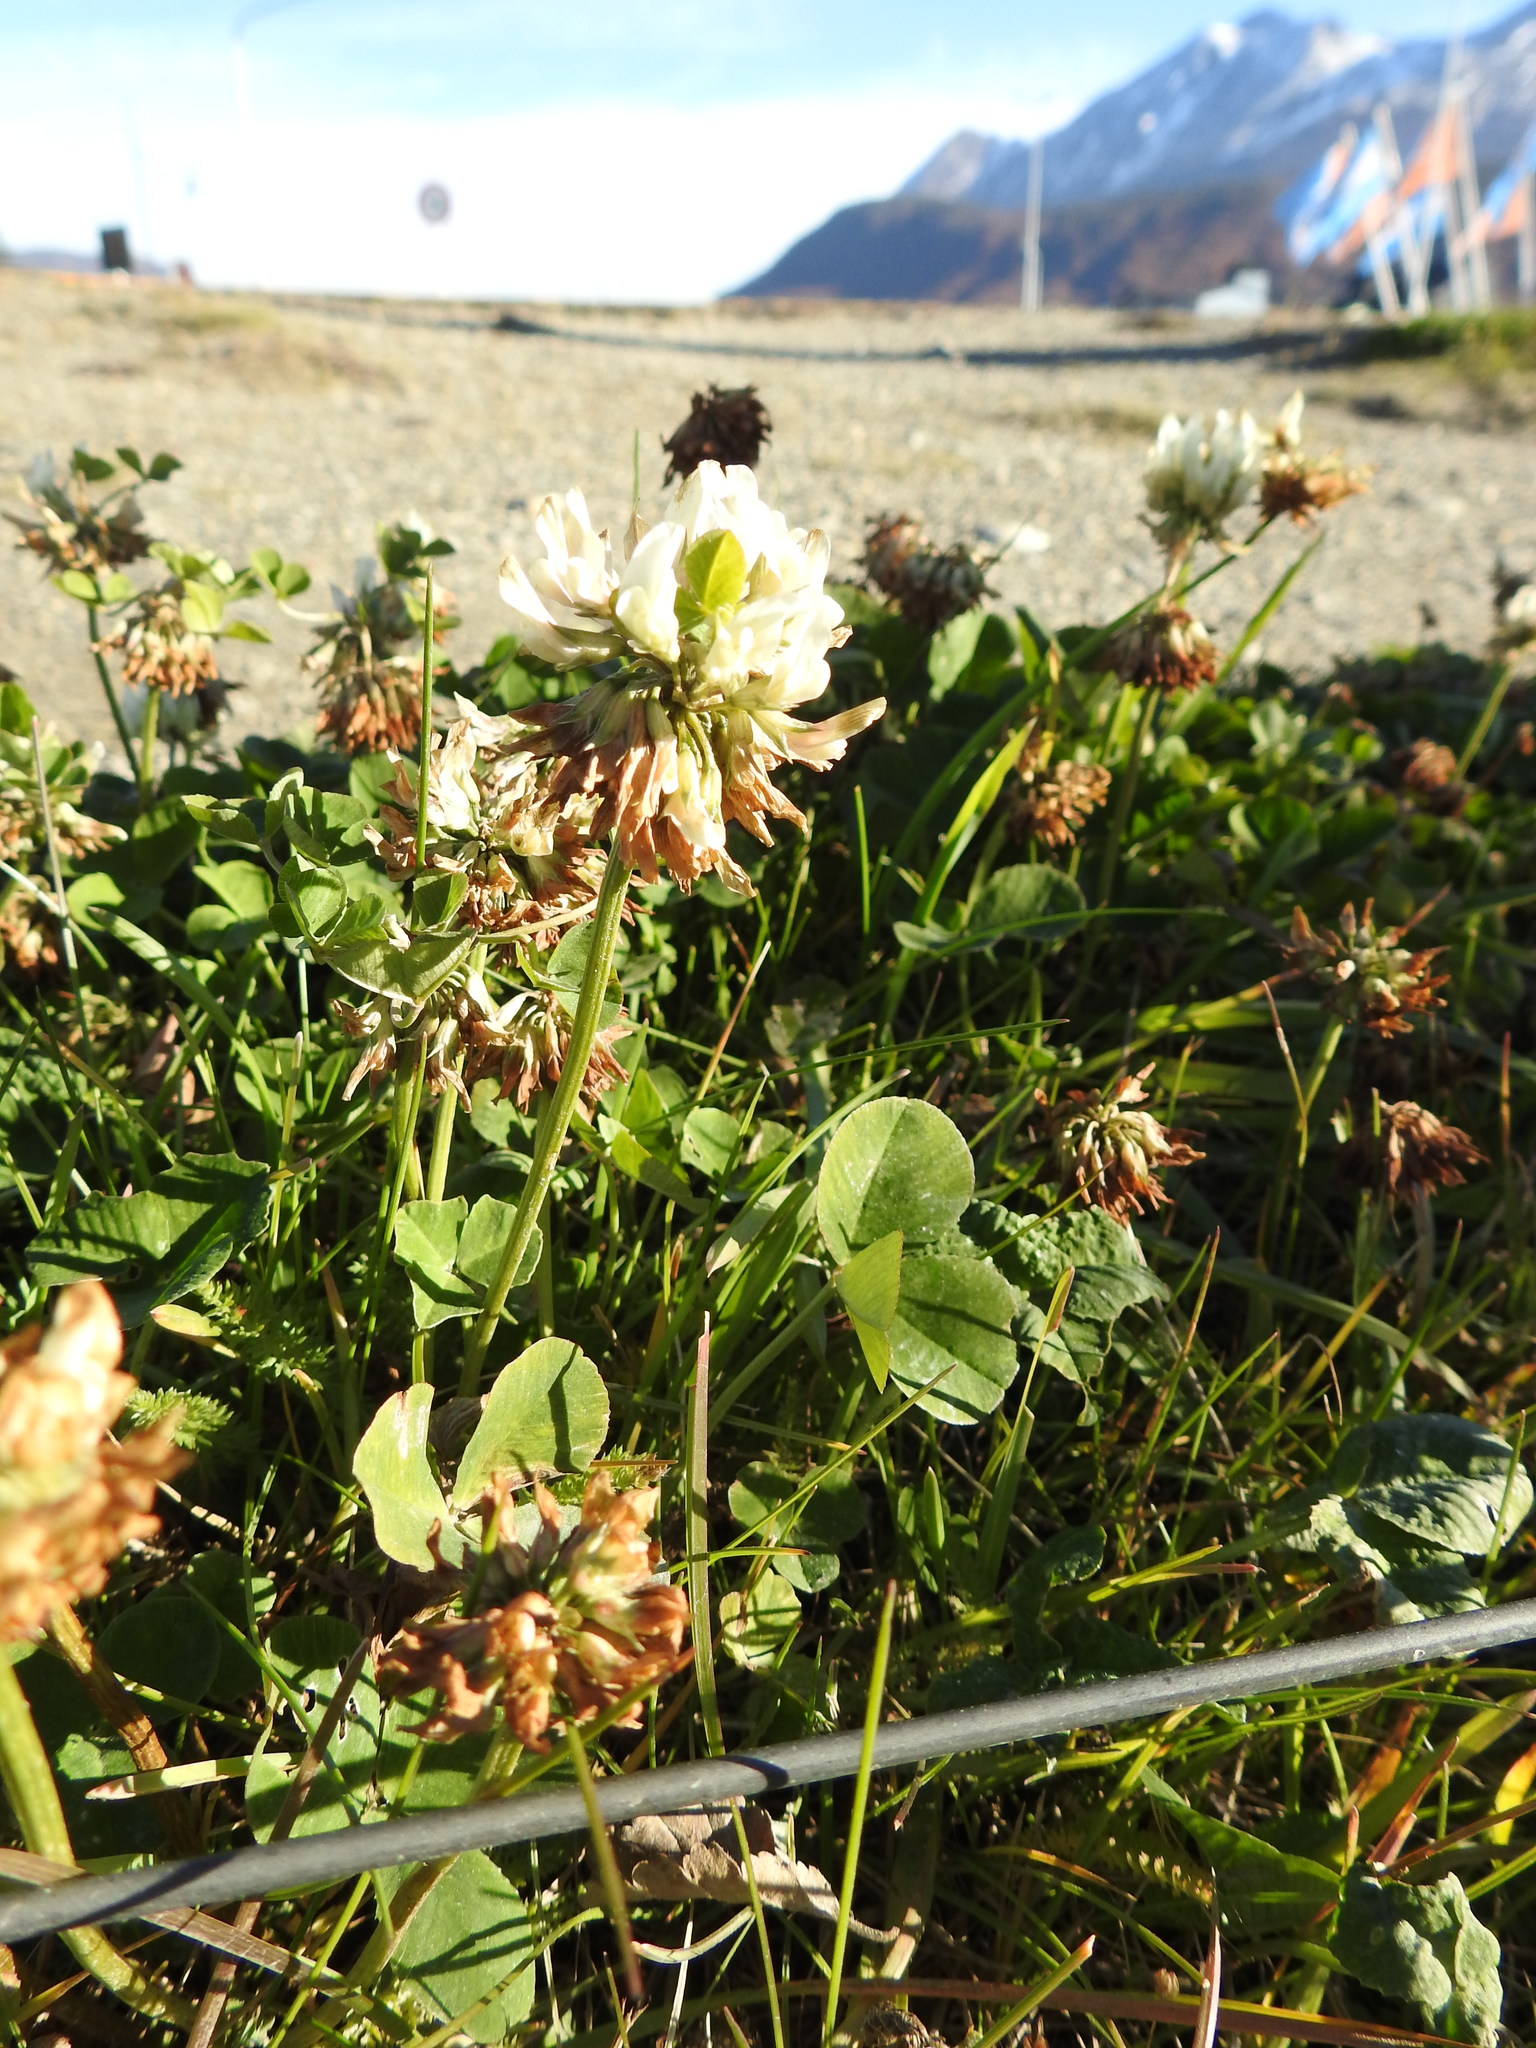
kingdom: Plantae
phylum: Tracheophyta
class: Magnoliopsida
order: Fabales
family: Fabaceae
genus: Trifolium
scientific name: Trifolium repens
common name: White clover
